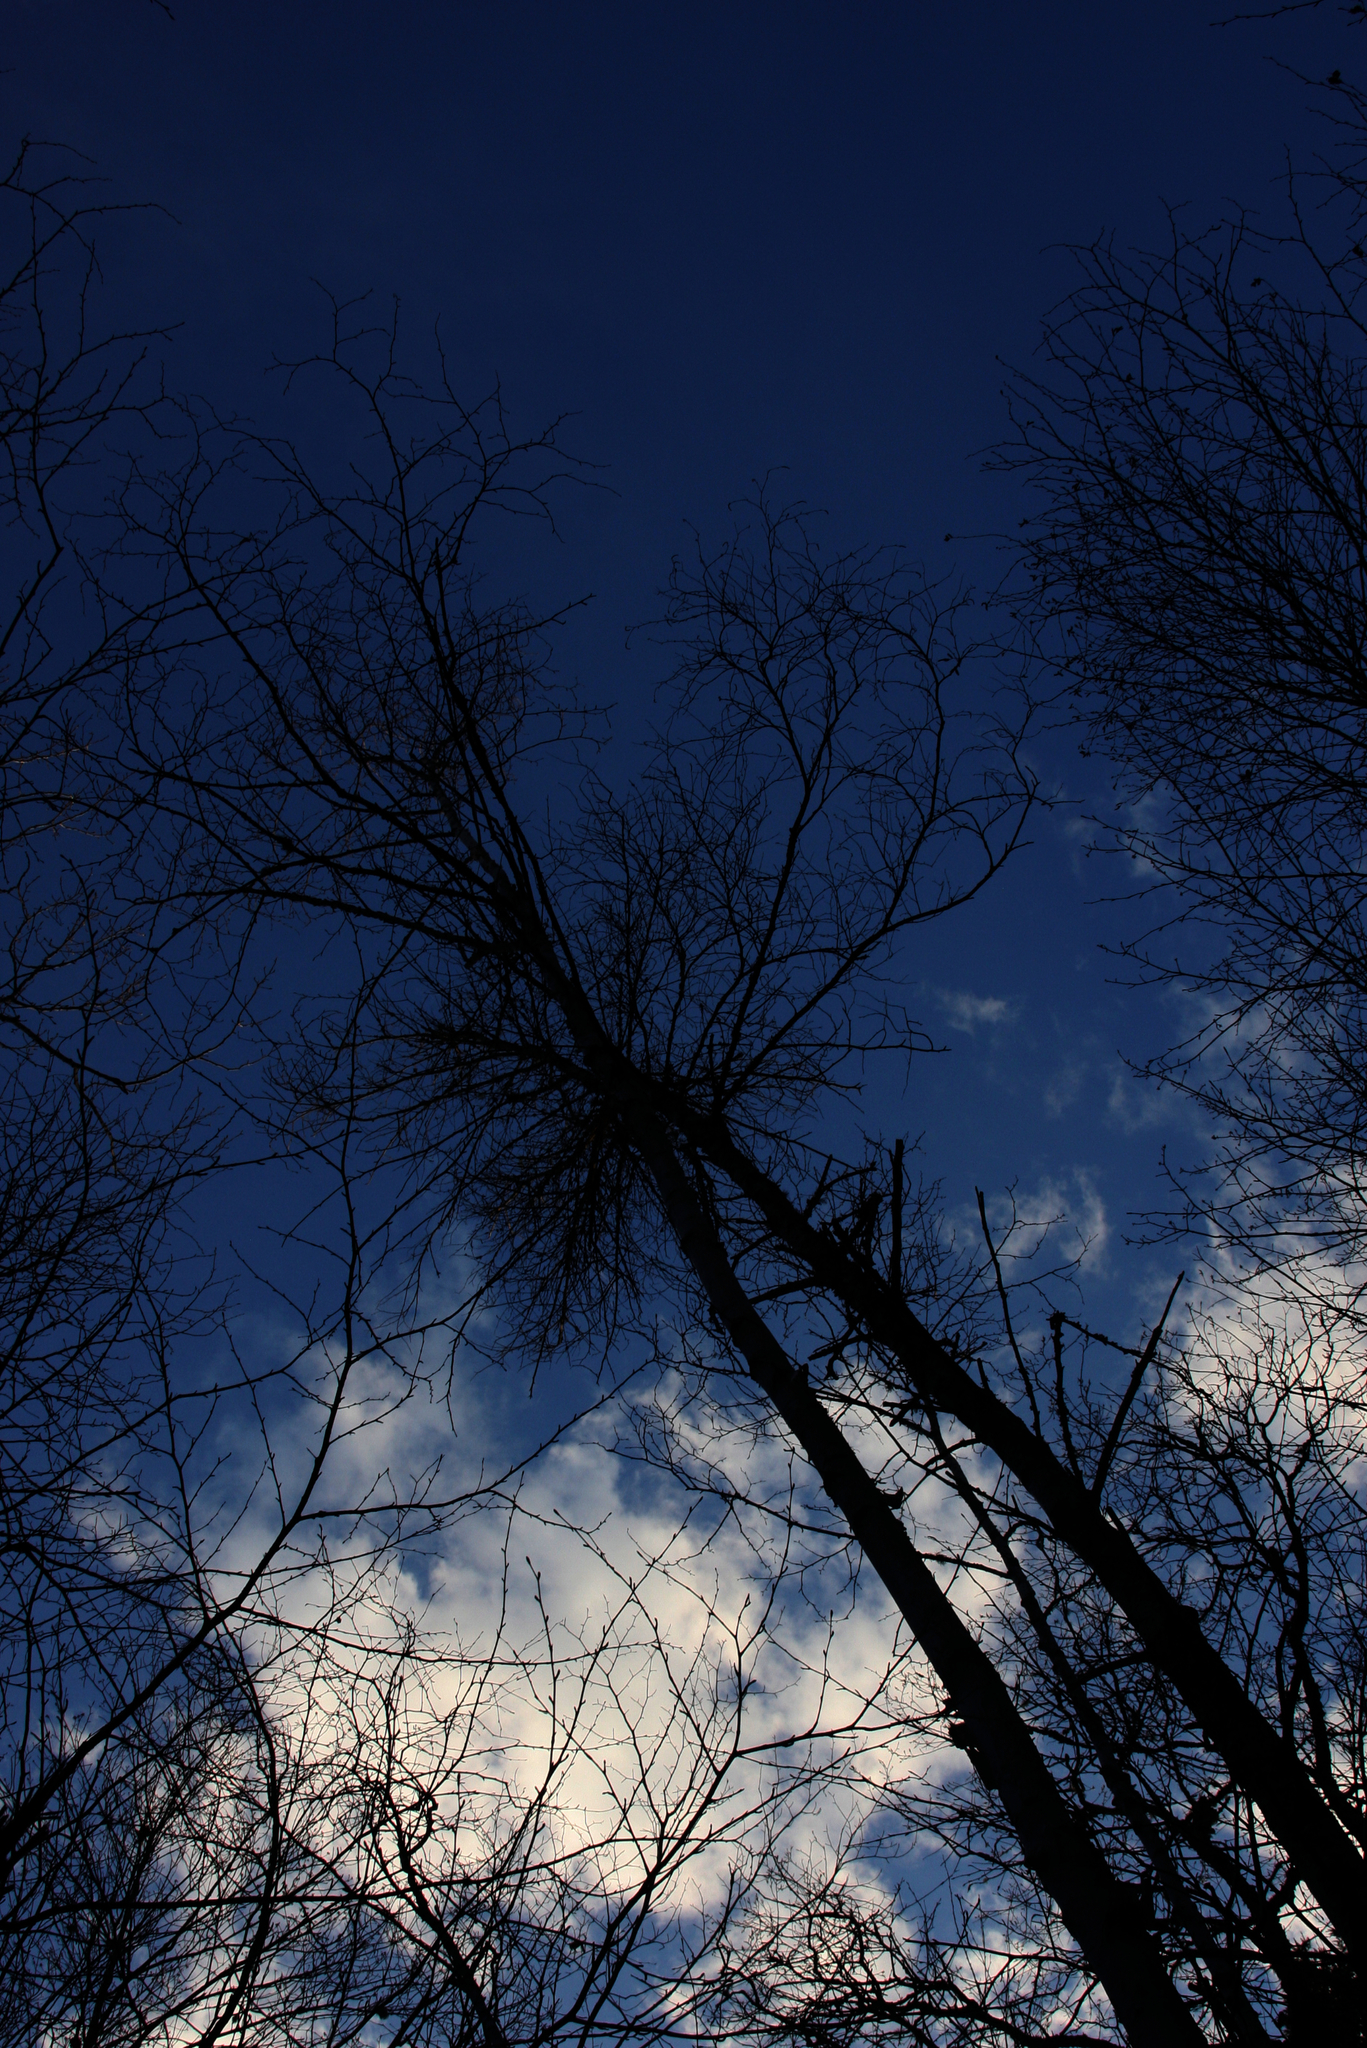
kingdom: Plantae
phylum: Tracheophyta
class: Magnoliopsida
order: Fagales
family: Betulaceae
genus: Betula
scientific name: Betula papyrifera
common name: Paper birch
